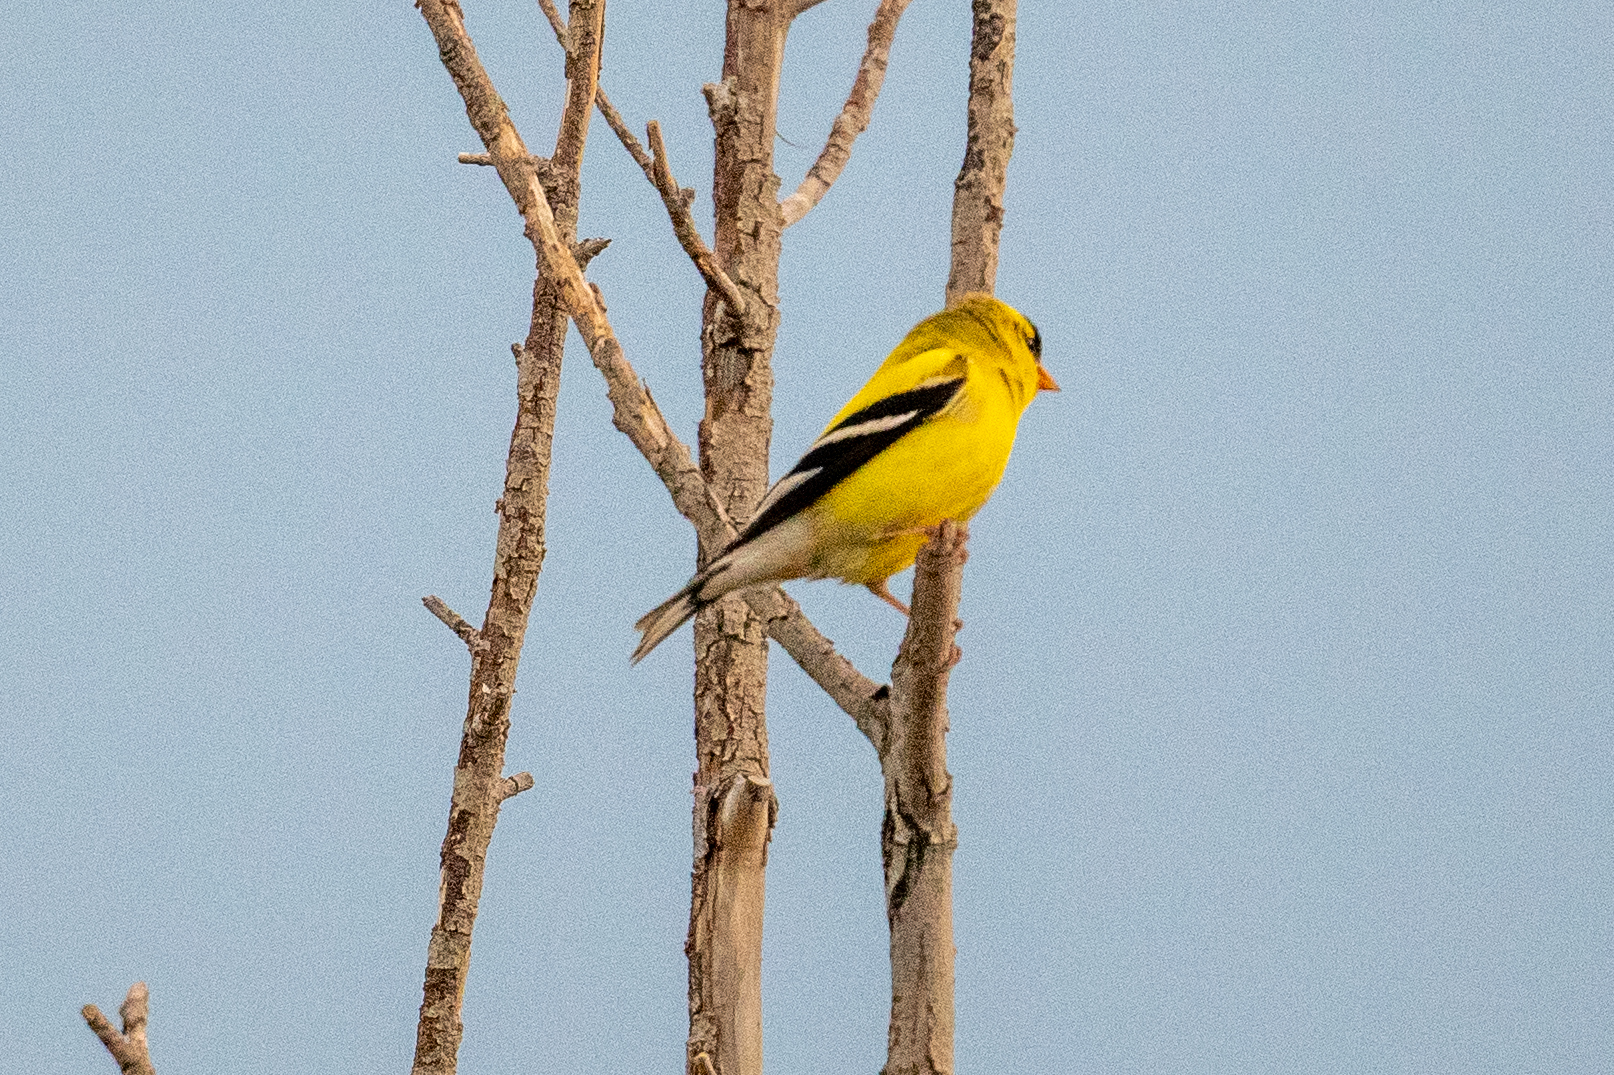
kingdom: Animalia
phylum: Chordata
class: Aves
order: Passeriformes
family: Fringillidae
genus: Spinus
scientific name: Spinus tristis
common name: American goldfinch
